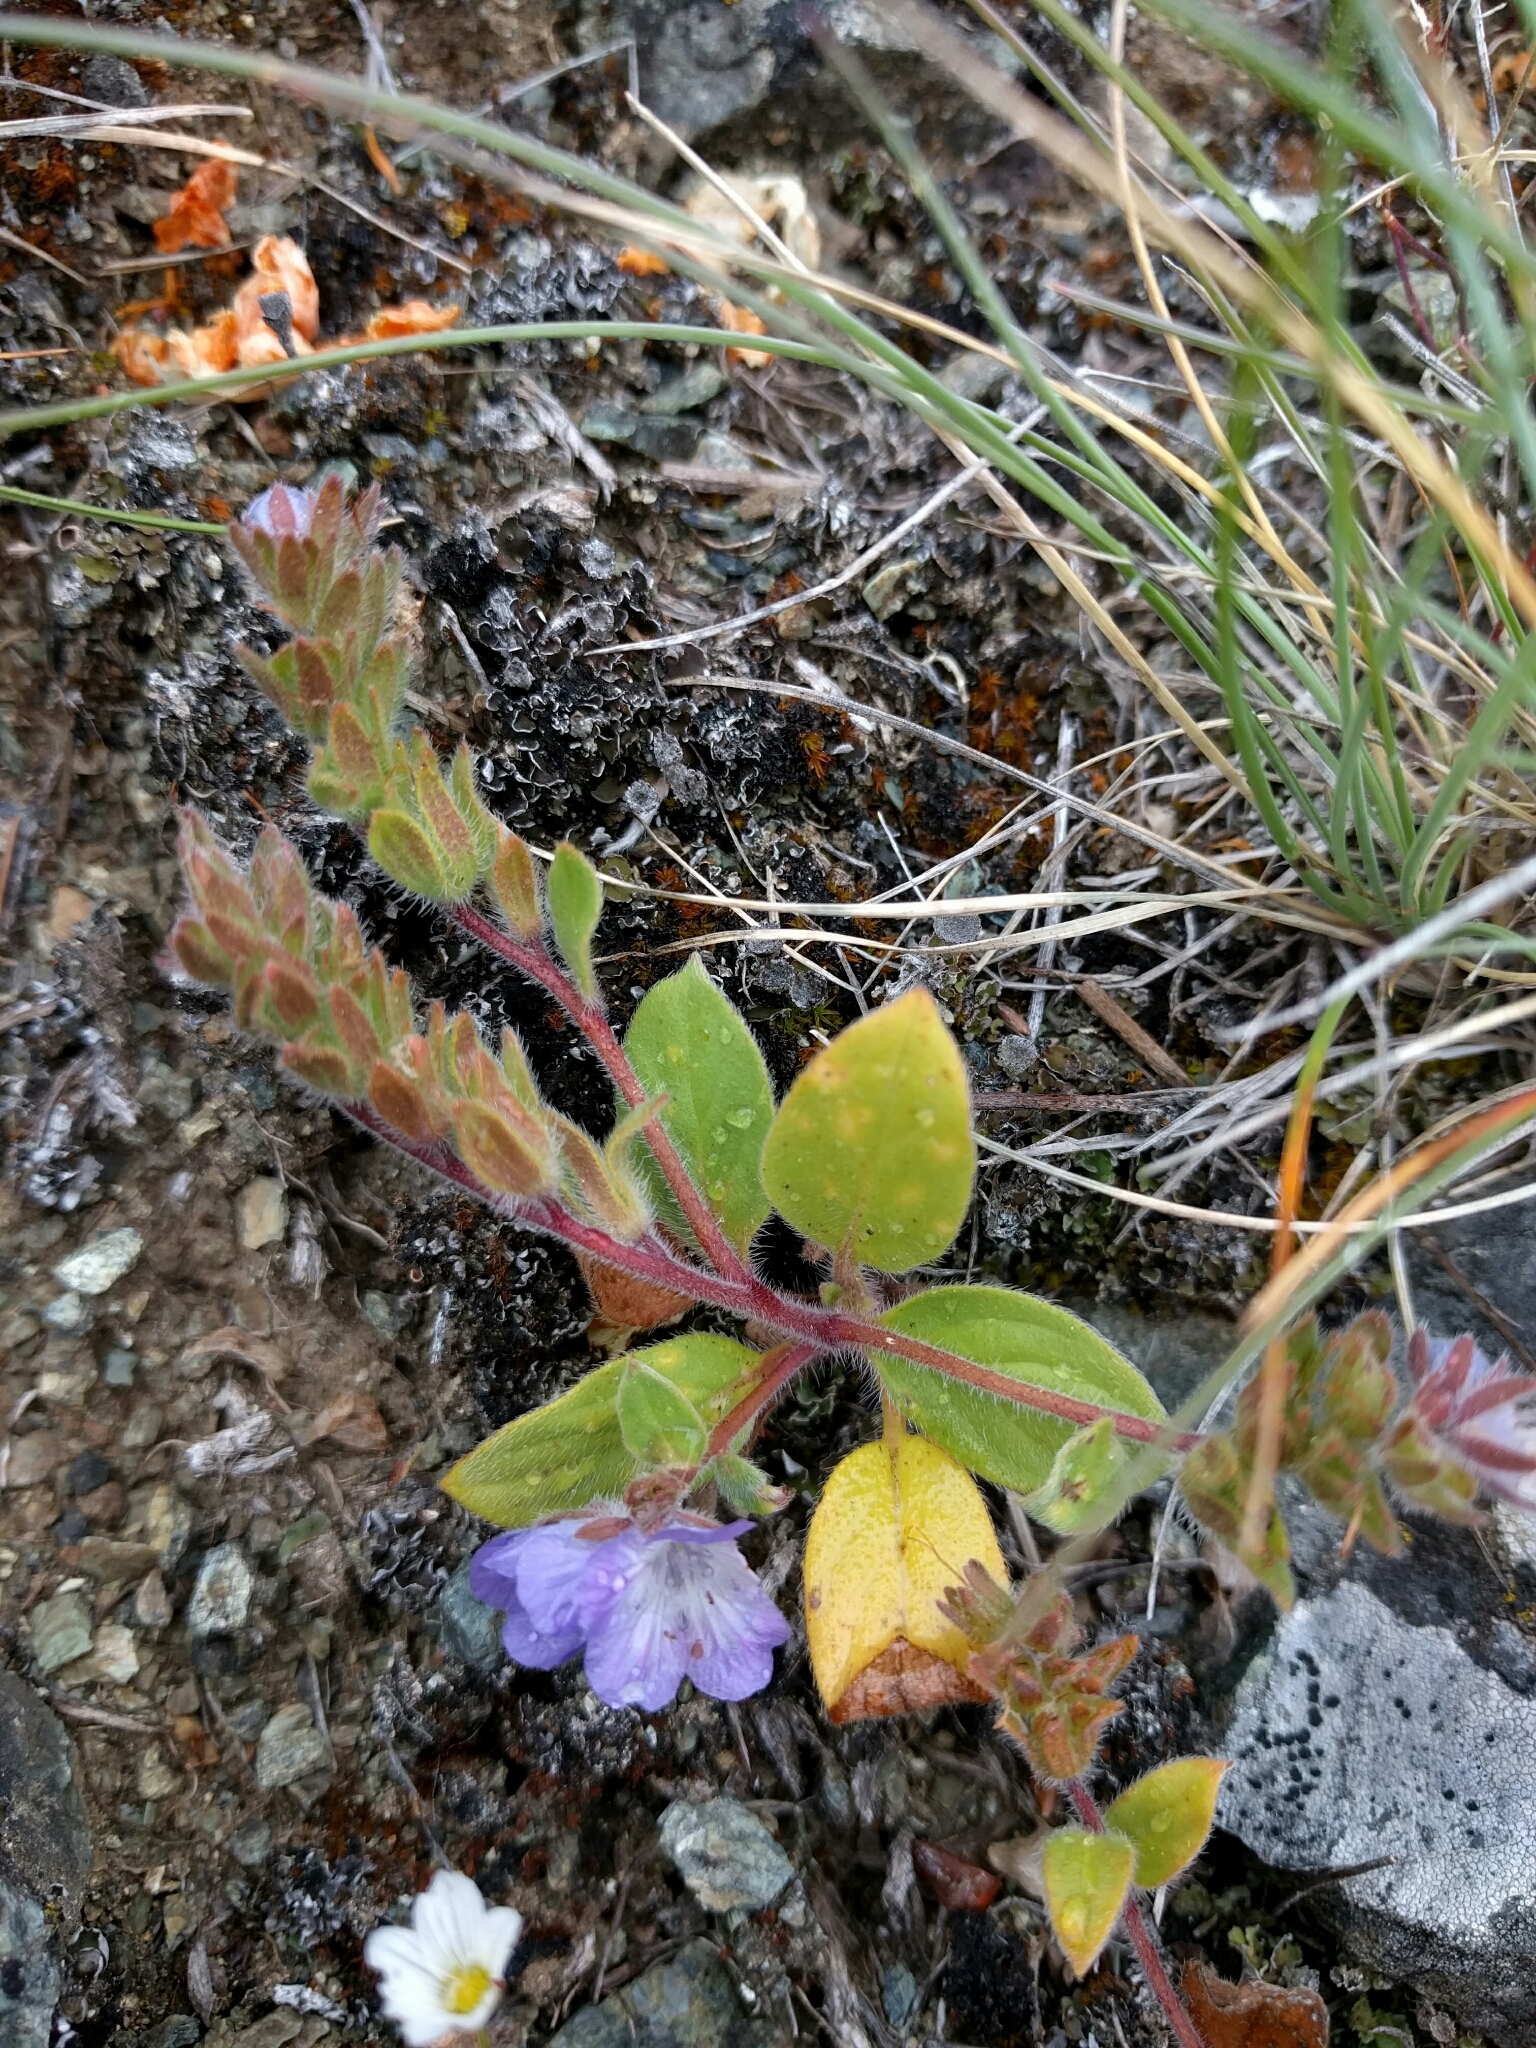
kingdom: Plantae
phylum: Tracheophyta
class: Magnoliopsida
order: Boraginales
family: Hydrophyllaceae
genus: Phacelia
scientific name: Phacelia divaricata
